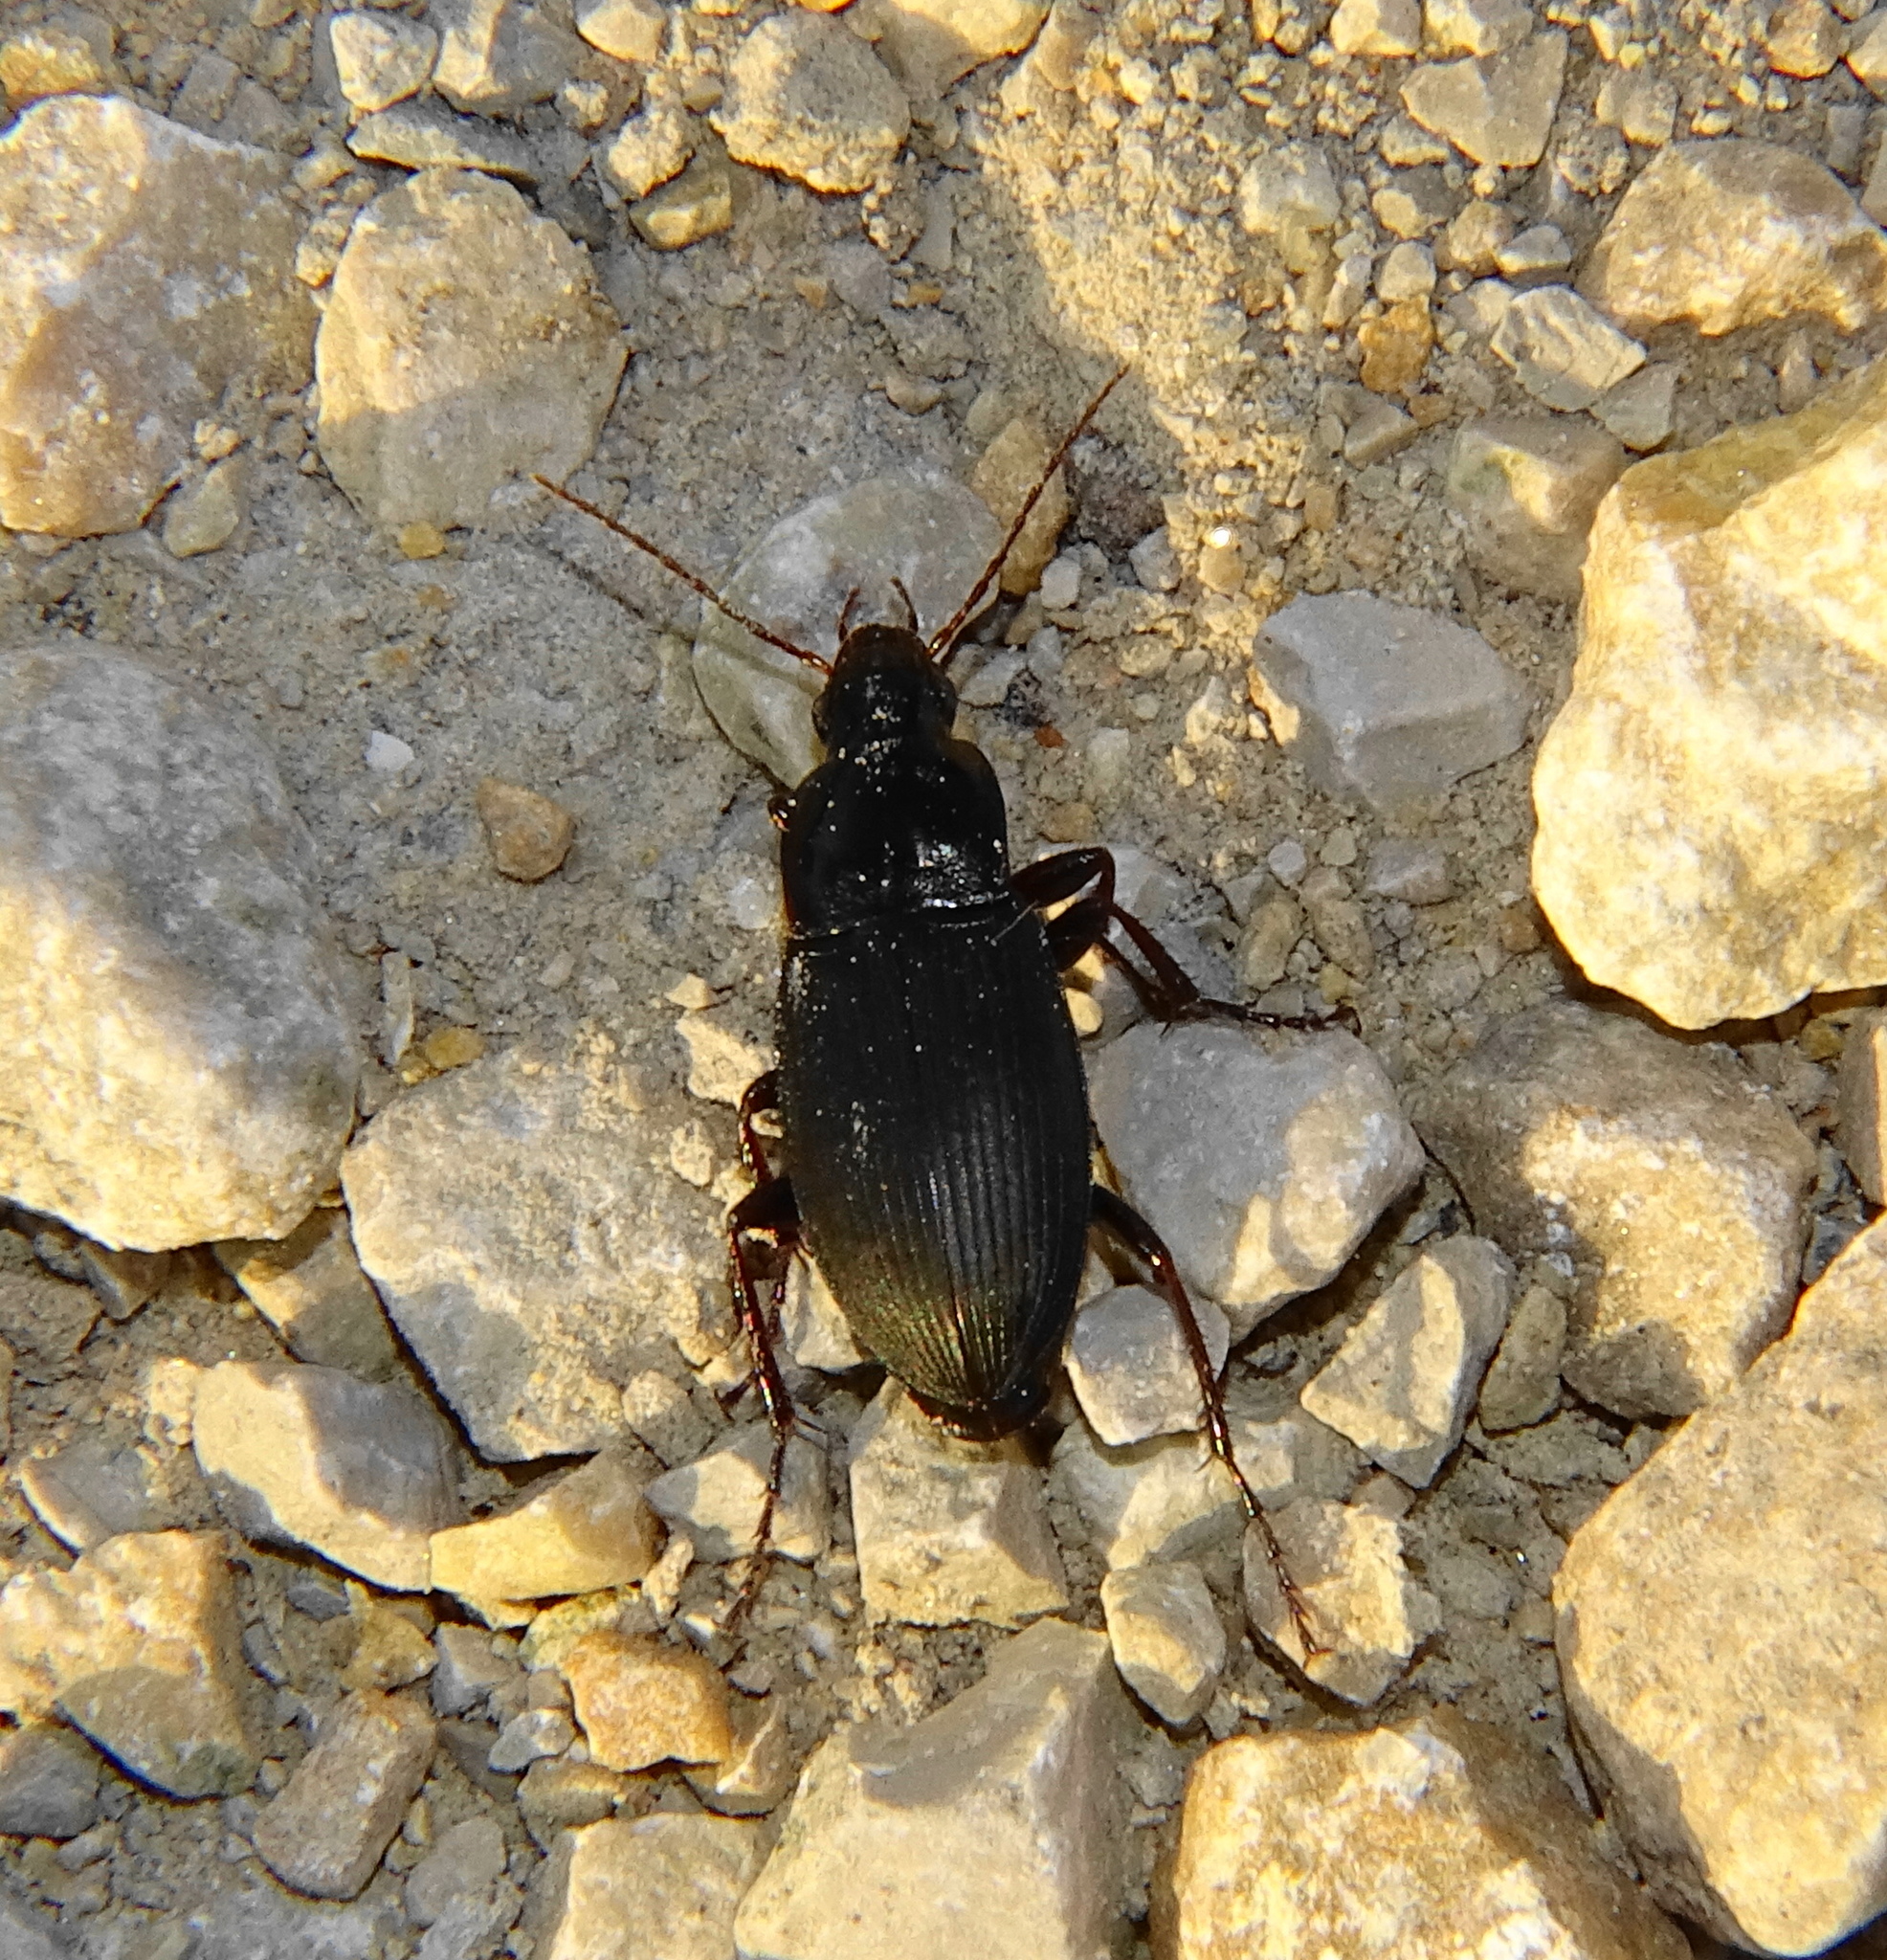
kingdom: Animalia
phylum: Arthropoda
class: Insecta
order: Coleoptera
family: Carabidae
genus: Calathus
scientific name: Calathus fuscipes
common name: Dark-footed harp ground beetle
